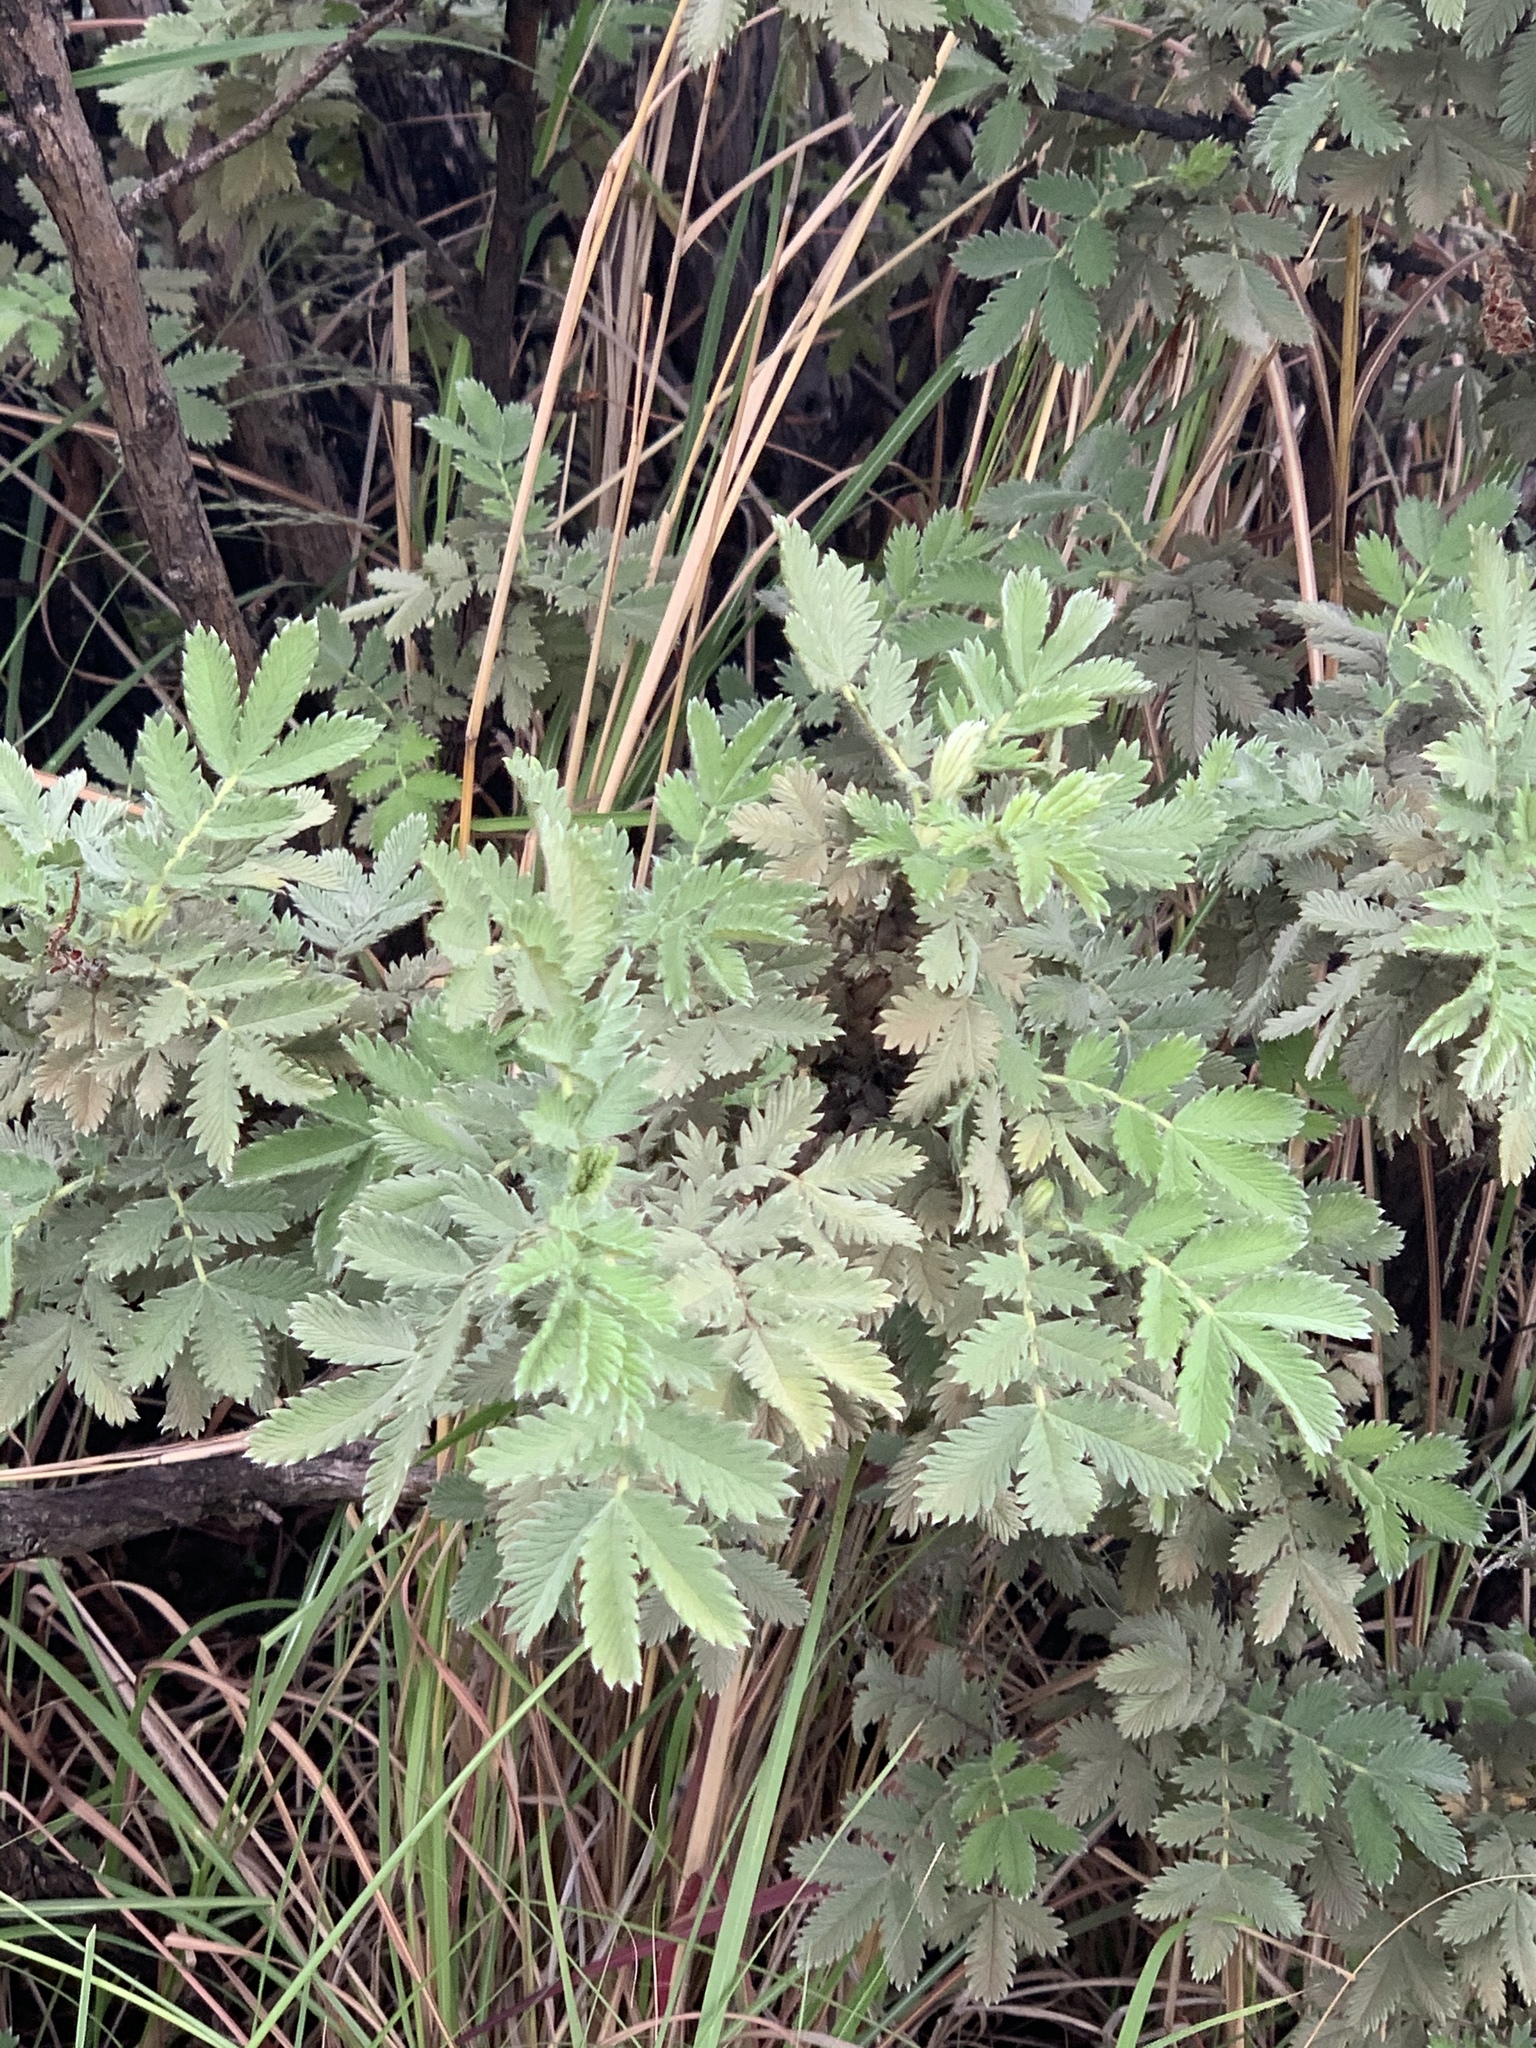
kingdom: Plantae
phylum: Tracheophyta
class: Magnoliopsida
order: Rosales
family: Rosaceae
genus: Leucosidea
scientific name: Leucosidea sericea
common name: Oldwood
